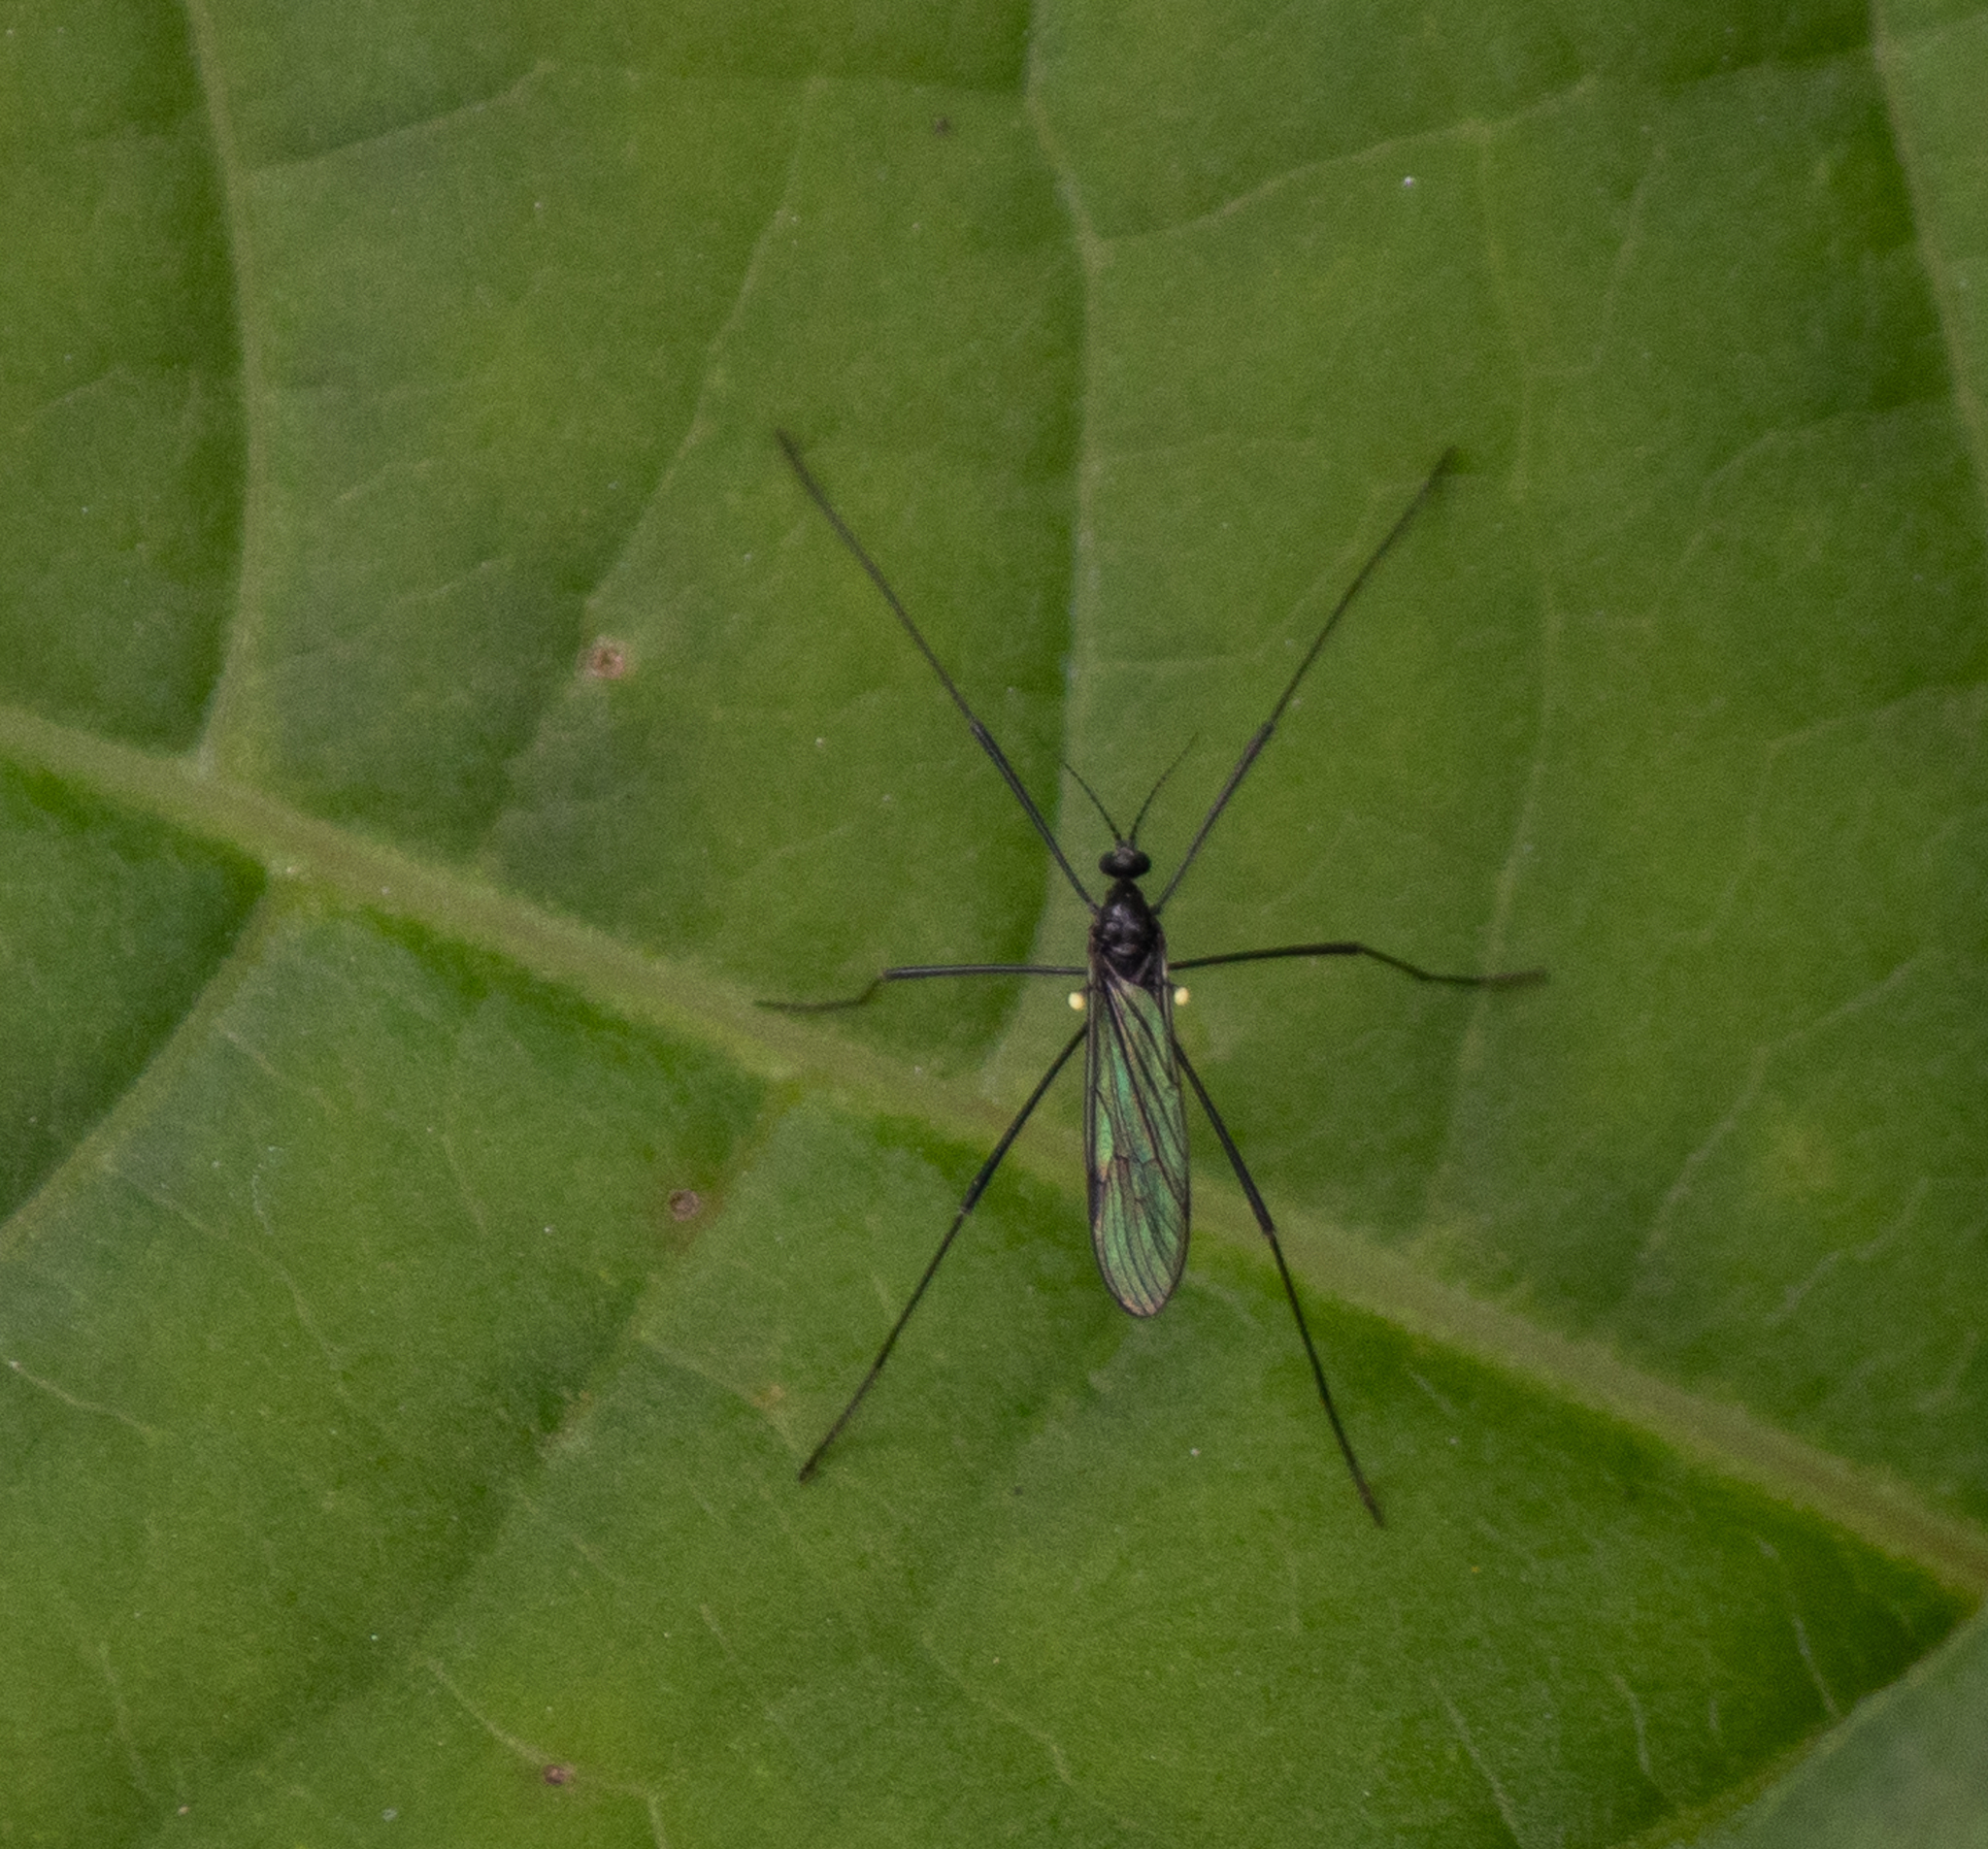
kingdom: Animalia
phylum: Arthropoda
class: Insecta
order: Diptera
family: Limoniidae
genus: Gnophomyia
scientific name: Gnophomyia tristissima
